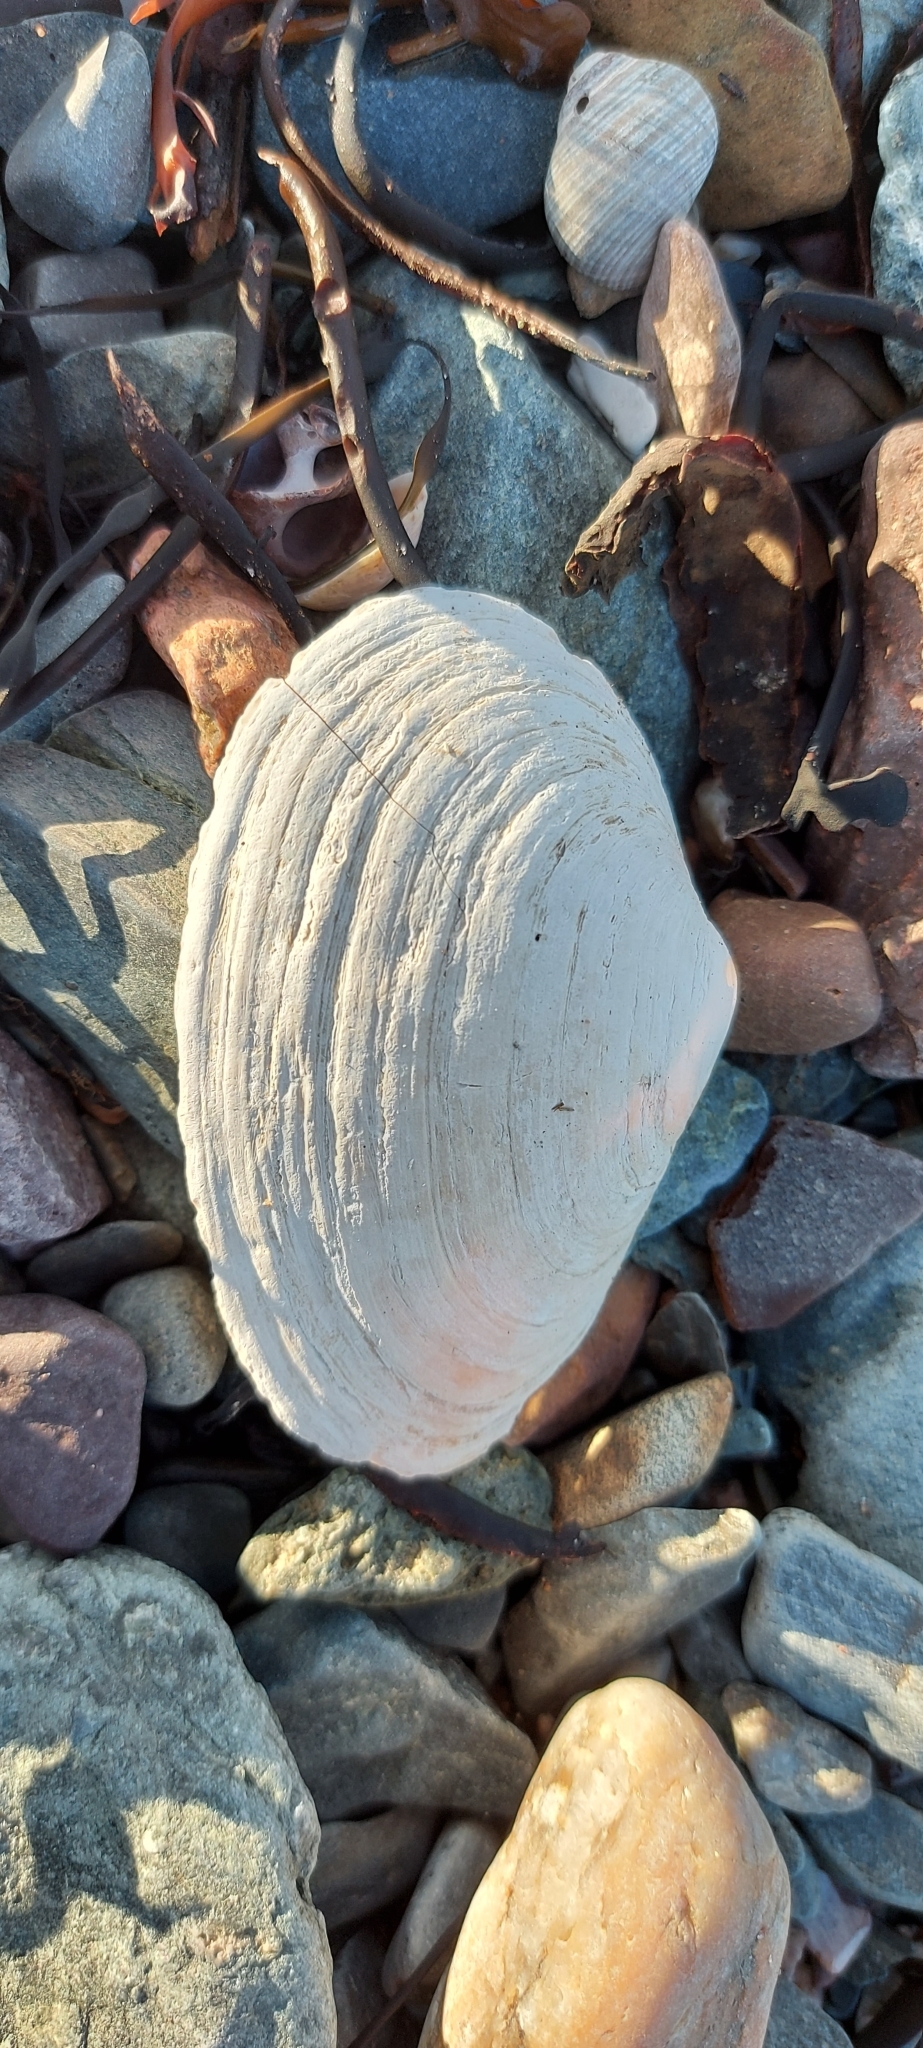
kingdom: Animalia
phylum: Mollusca
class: Bivalvia
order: Myida
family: Myidae
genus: Mya
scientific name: Mya arenaria
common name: Soft-shelled clam
